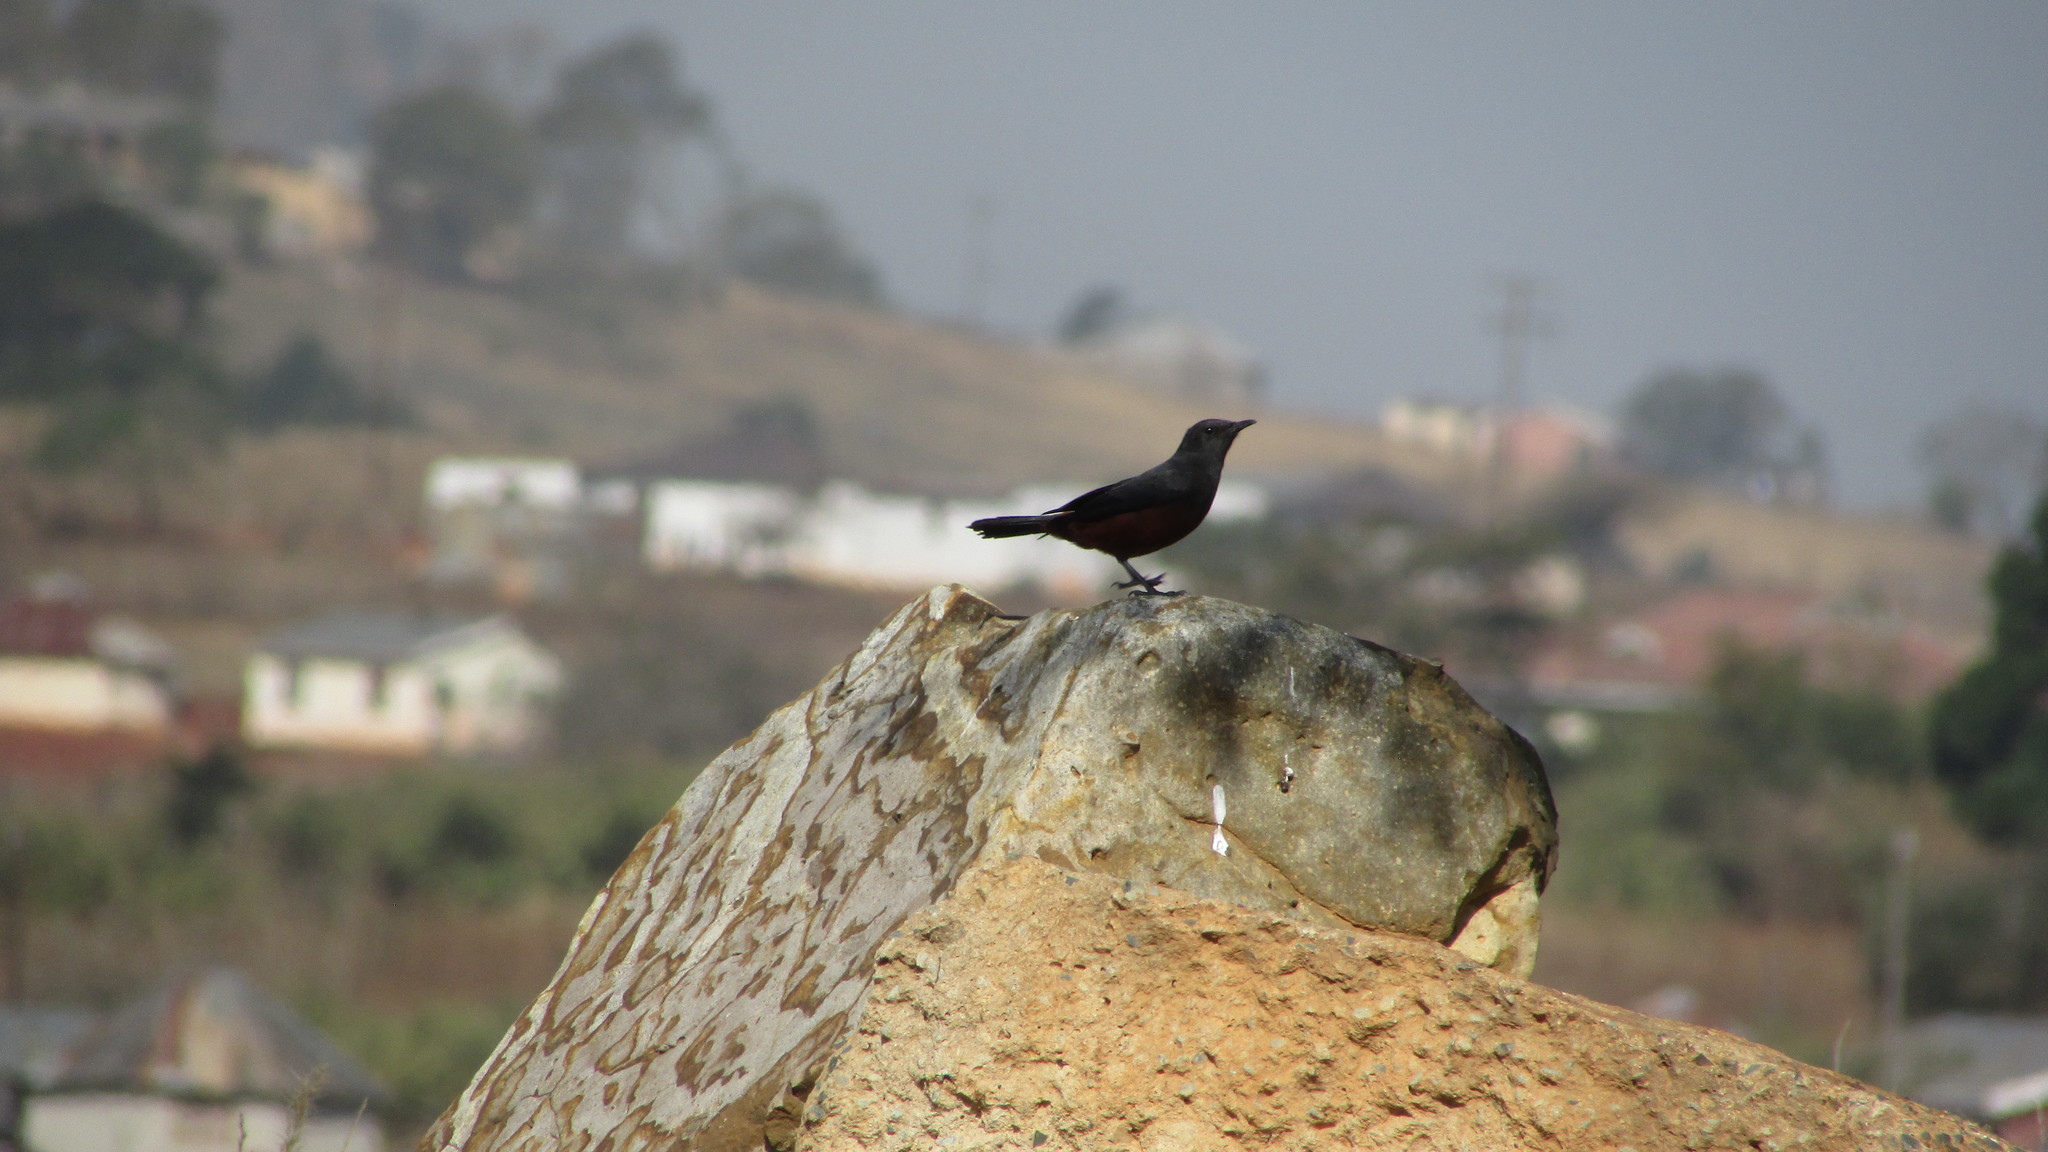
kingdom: Animalia
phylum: Chordata
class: Aves
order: Passeriformes
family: Muscicapidae
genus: Thamnolaea
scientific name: Thamnolaea cinnamomeiventris
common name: Mocking cliff chat
